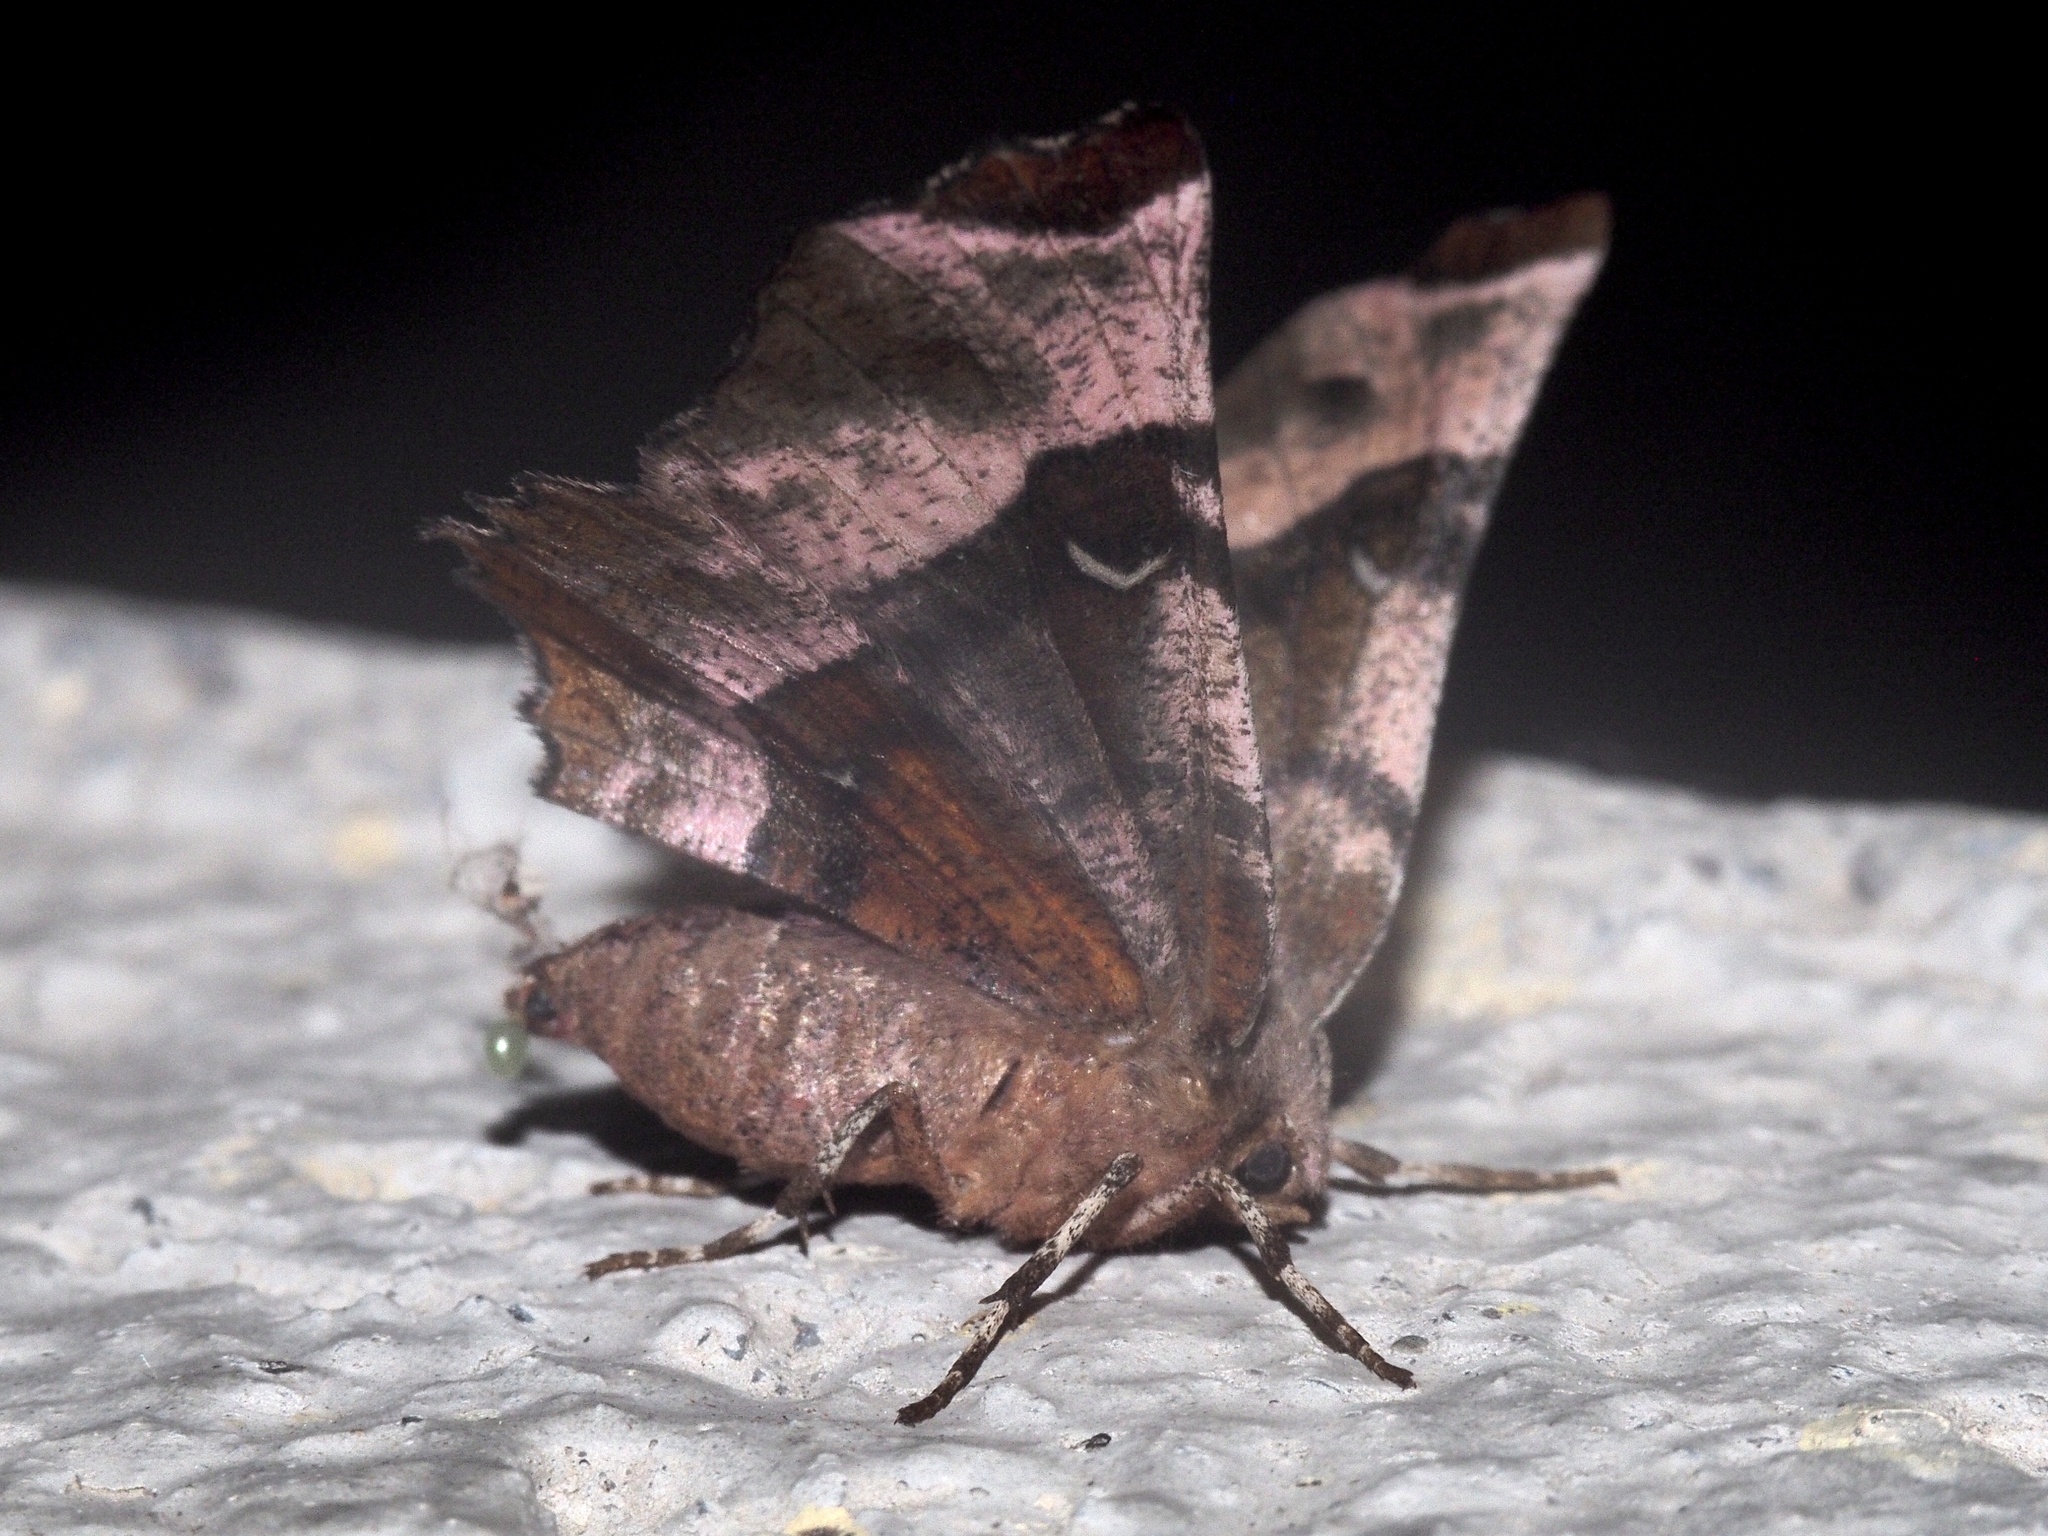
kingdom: Animalia
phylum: Arthropoda
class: Insecta
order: Lepidoptera
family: Geometridae
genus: Selenia
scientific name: Selenia tetralunaria
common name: Purple thorn
